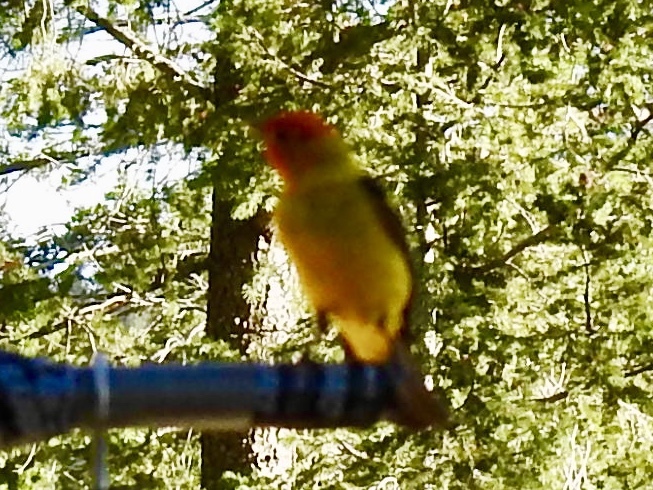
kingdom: Animalia
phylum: Chordata
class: Aves
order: Passeriformes
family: Cardinalidae
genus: Piranga
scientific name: Piranga ludoviciana
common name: Western tanager
